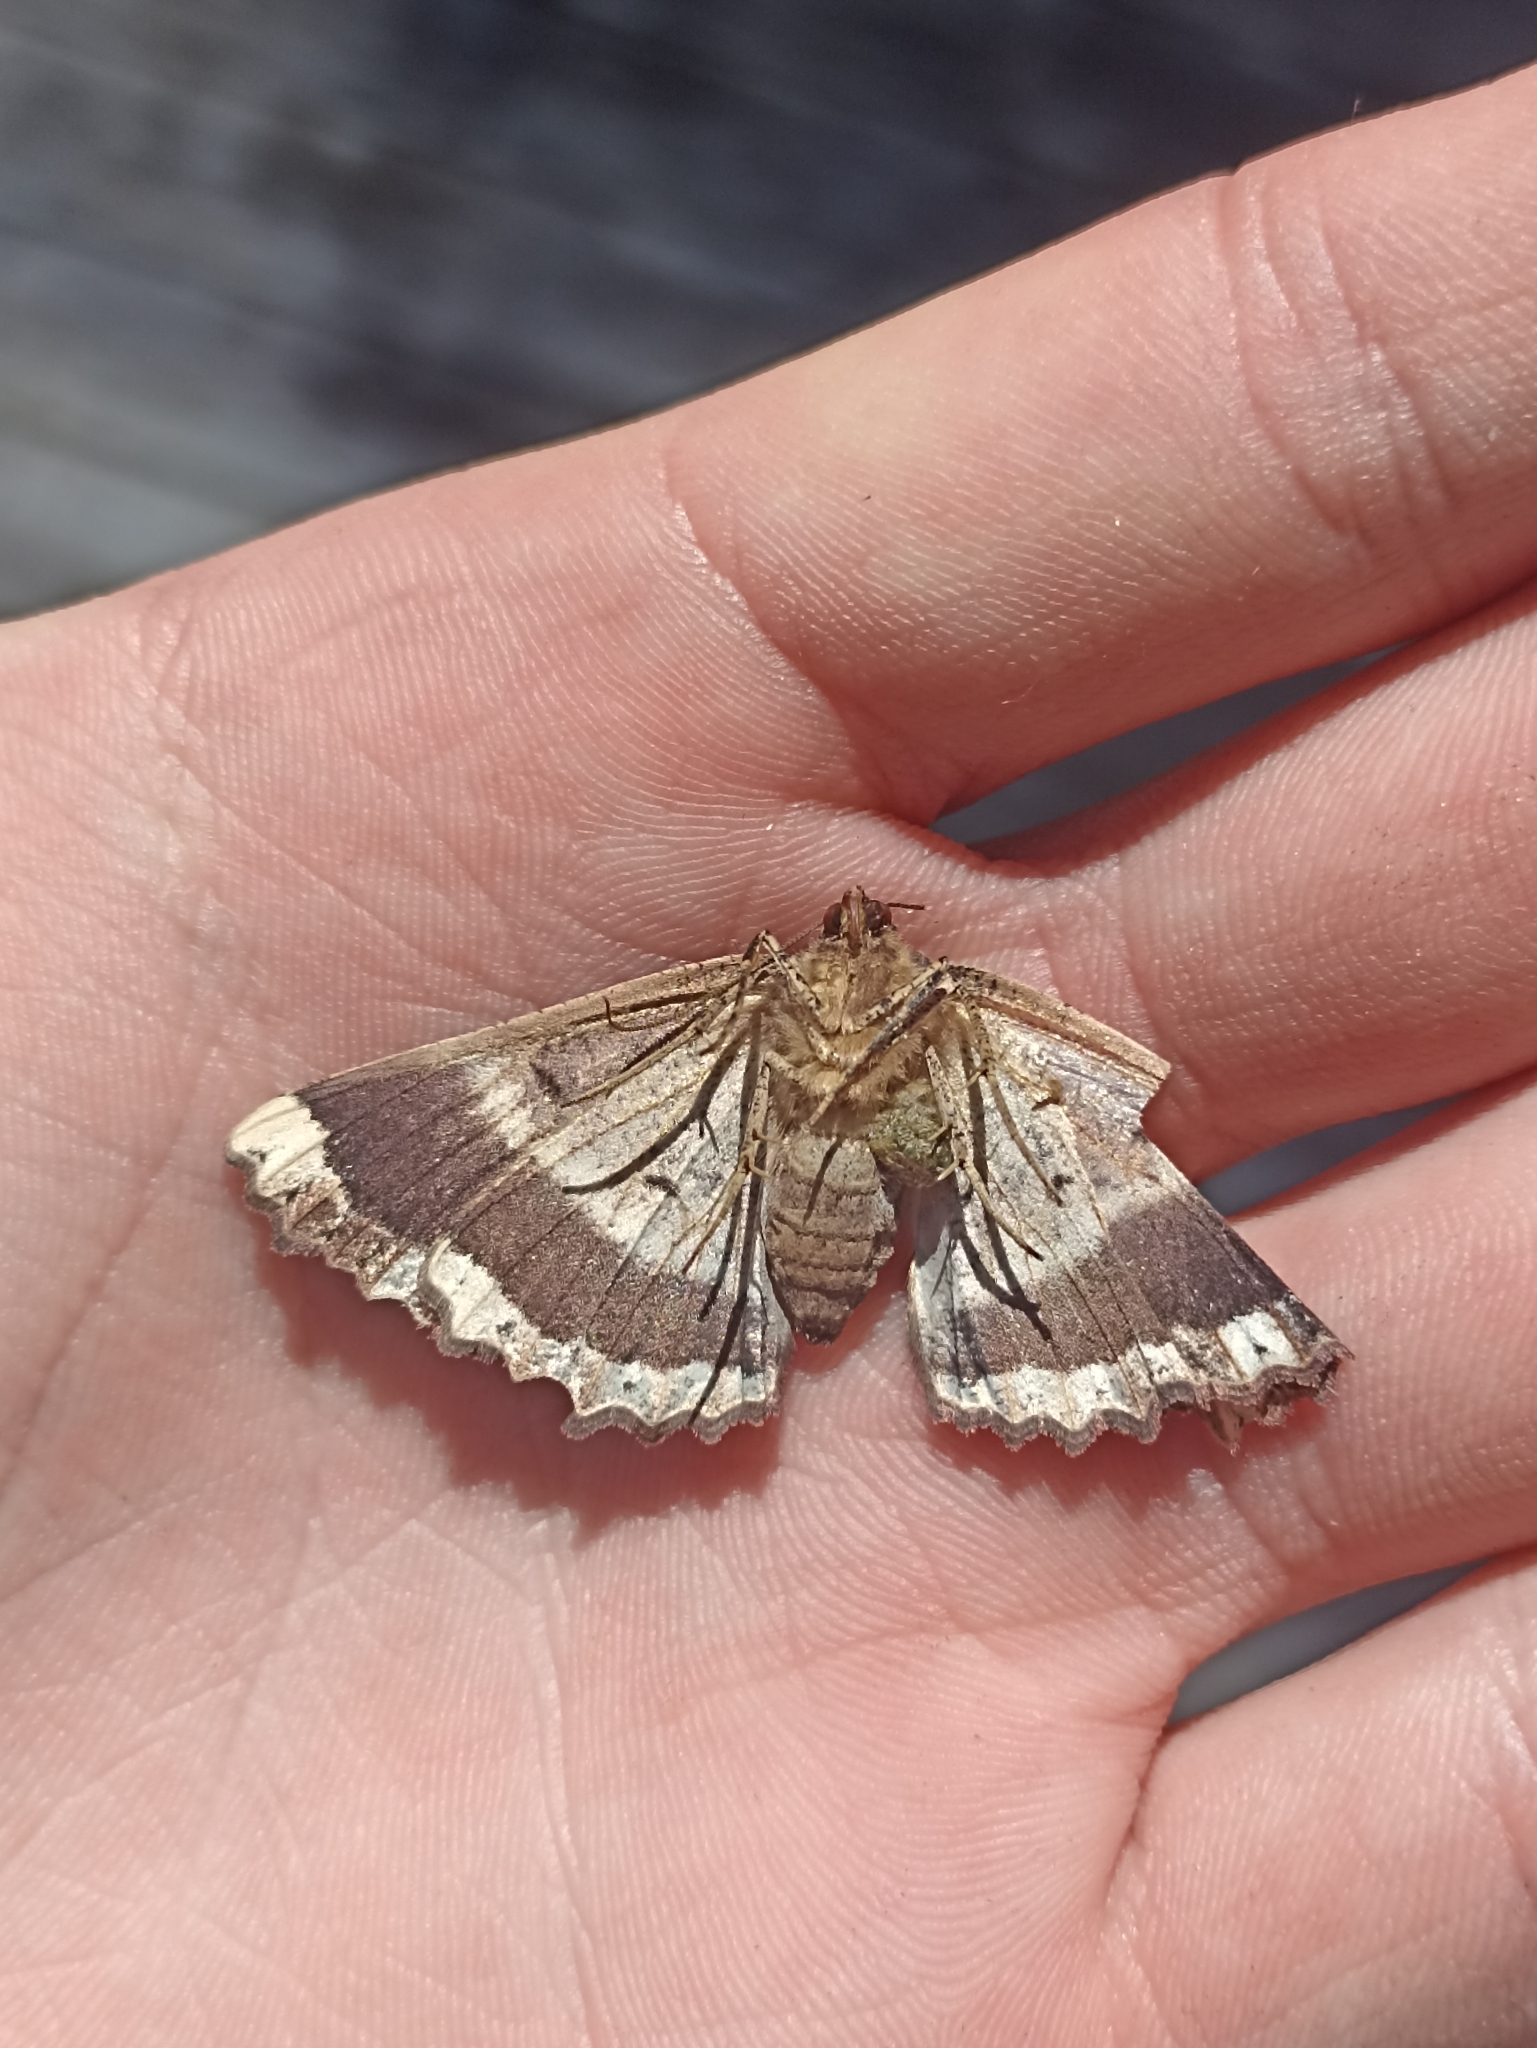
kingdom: Animalia
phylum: Arthropoda
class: Insecta
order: Lepidoptera
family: Geometridae
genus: Gellonia
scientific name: Gellonia dejectaria
